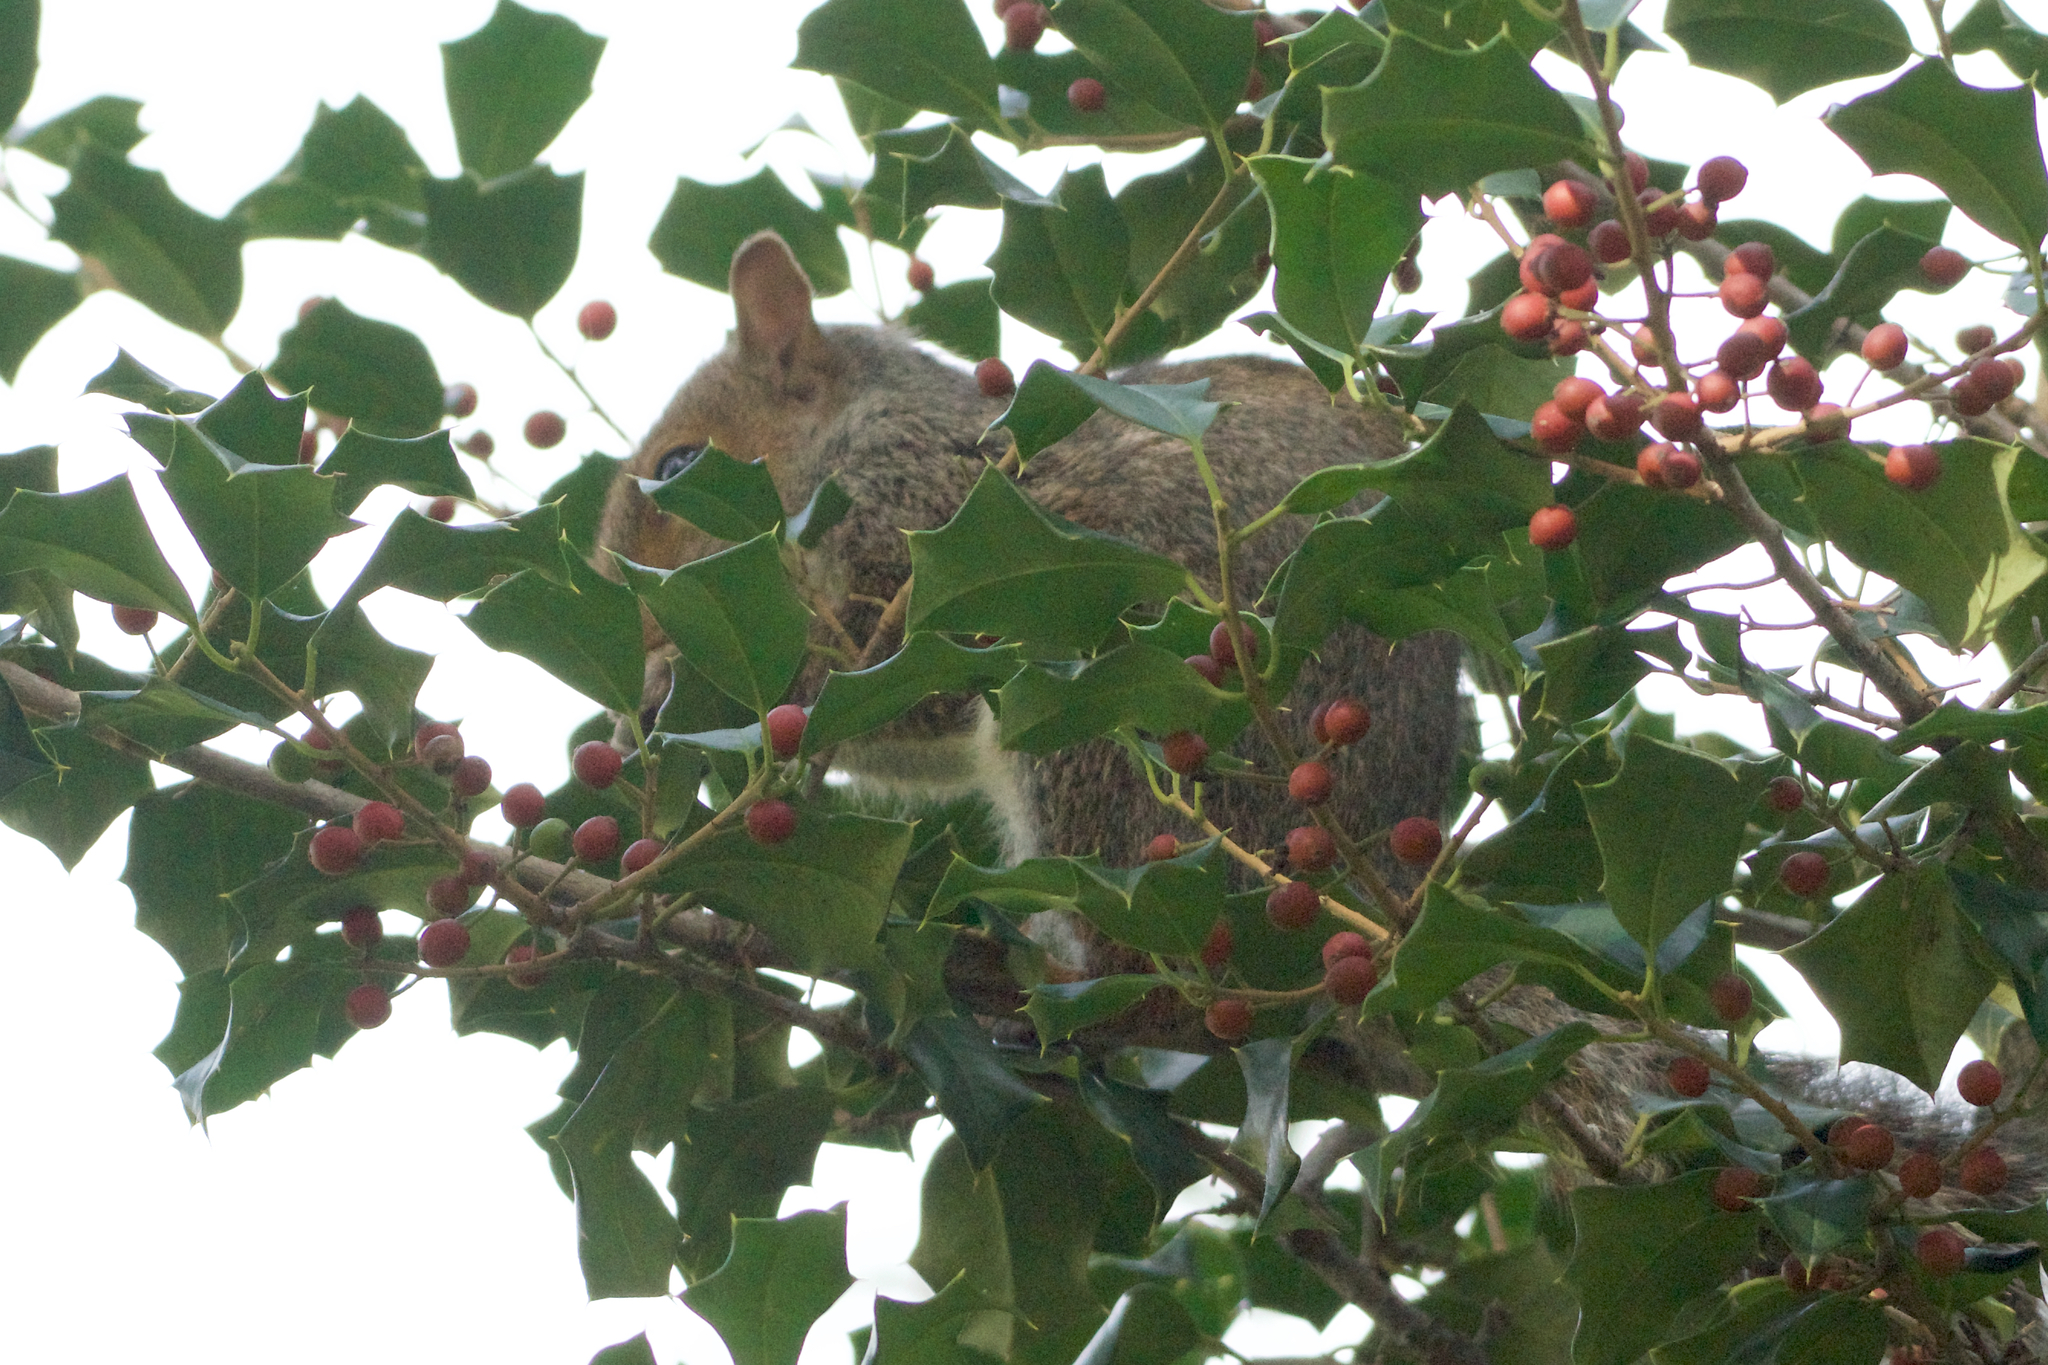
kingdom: Animalia
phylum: Chordata
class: Mammalia
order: Rodentia
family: Sciuridae
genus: Sciurus
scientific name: Sciurus carolinensis
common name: Eastern gray squirrel
